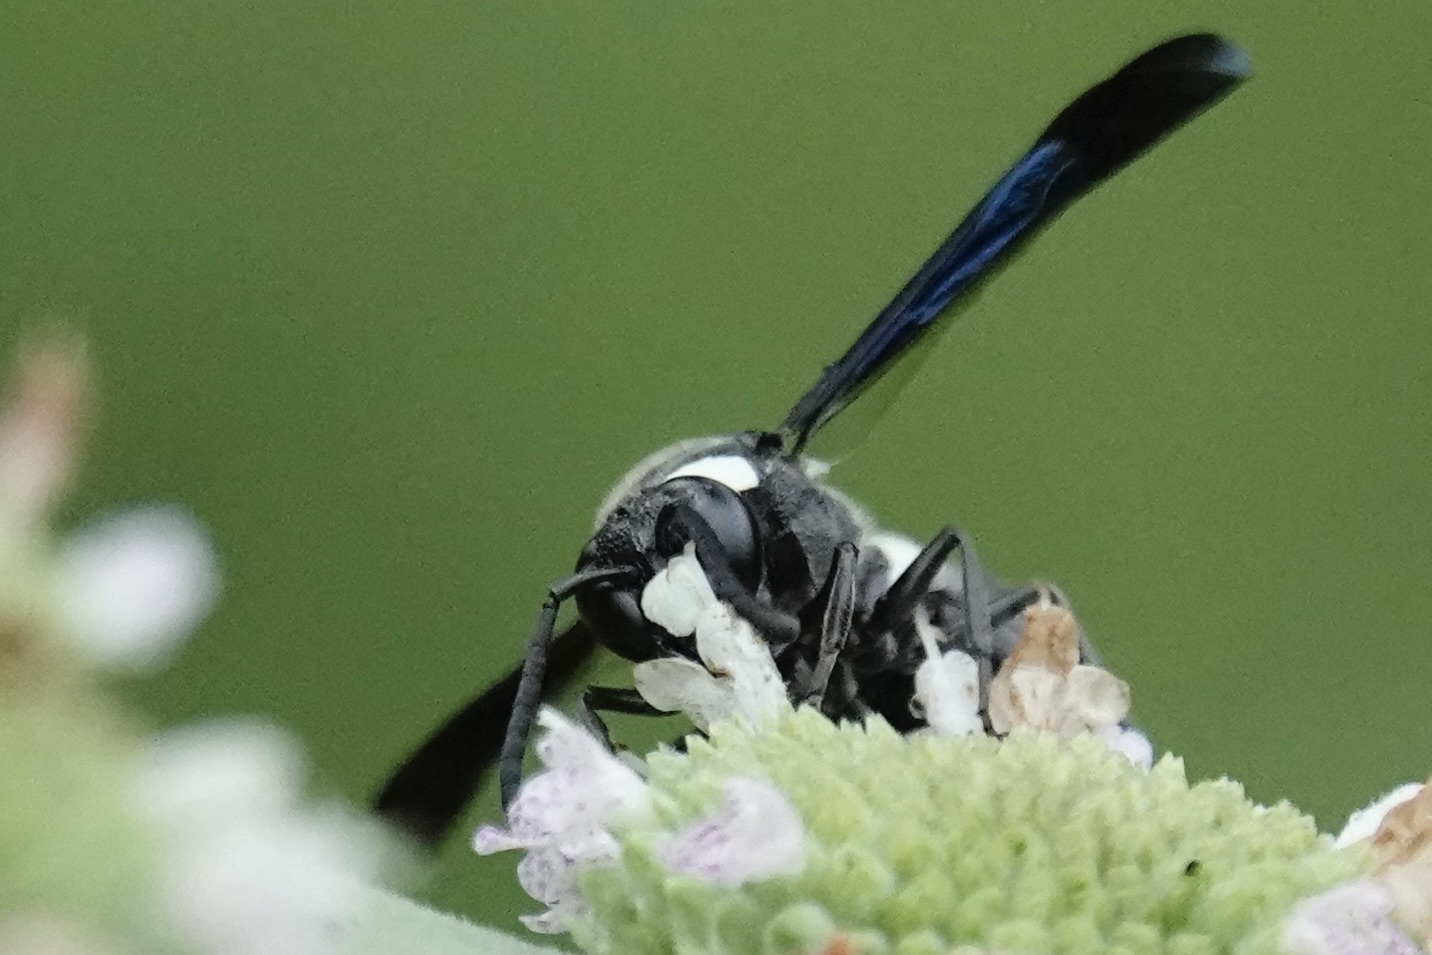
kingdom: Animalia
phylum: Arthropoda
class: Insecta
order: Hymenoptera
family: Eumenidae
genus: Monobia
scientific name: Monobia quadridens
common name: Four-toothed mason wasp
